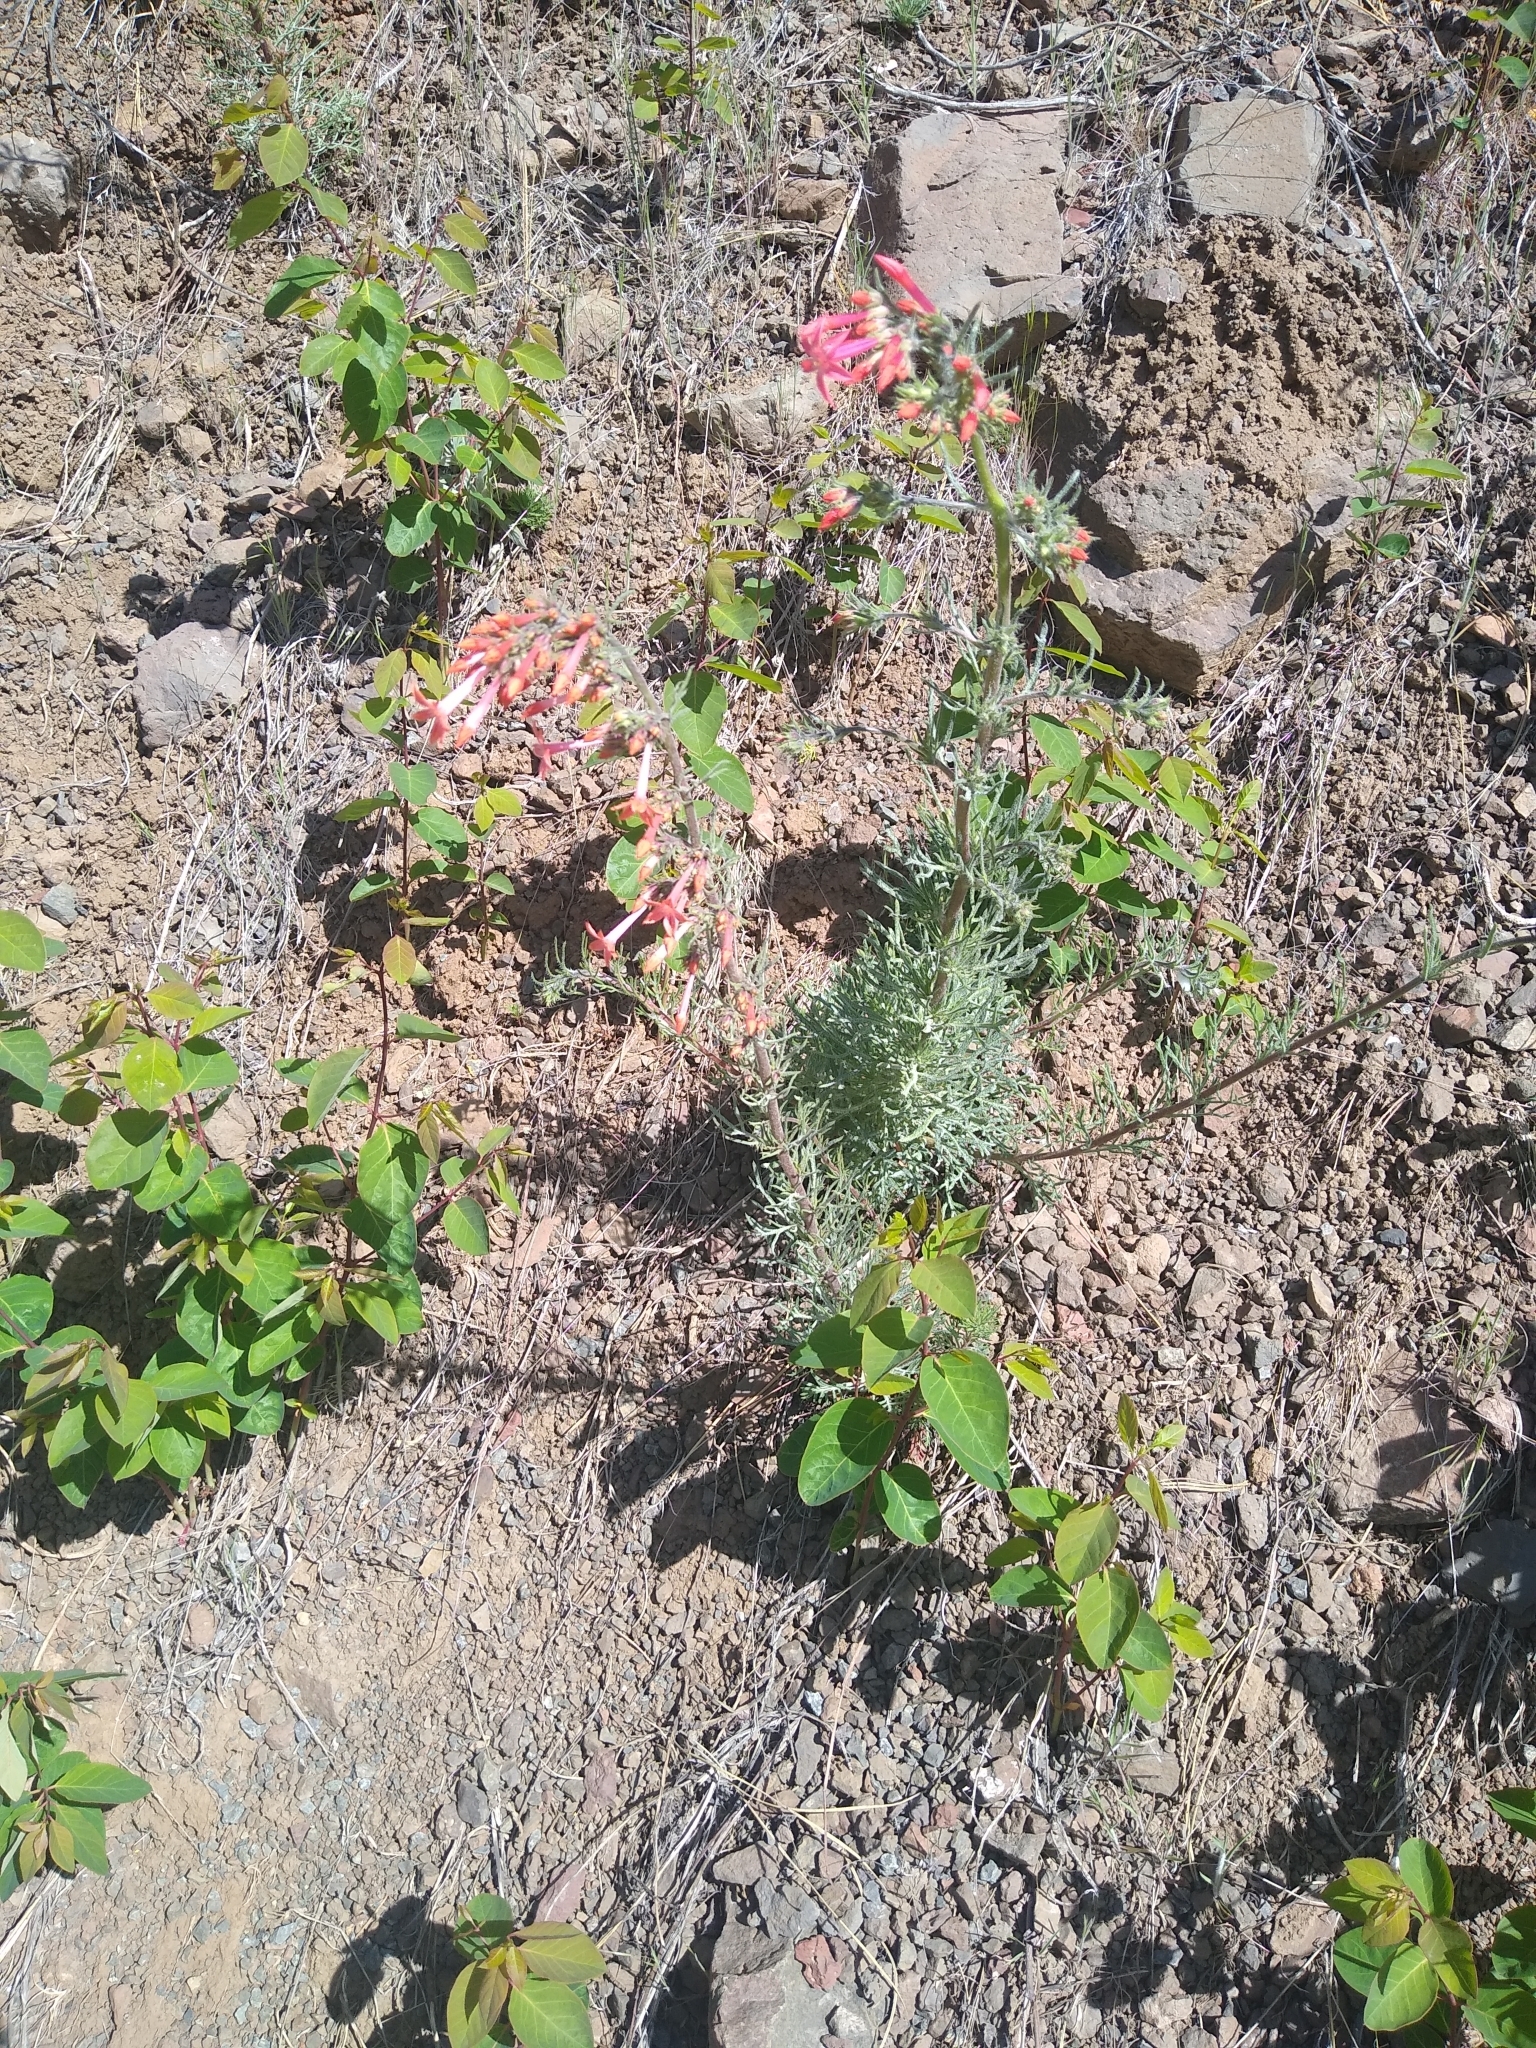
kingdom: Plantae
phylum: Tracheophyta
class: Magnoliopsida
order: Ericales
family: Polemoniaceae
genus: Ipomopsis
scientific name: Ipomopsis aggregata
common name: Scarlet gilia
